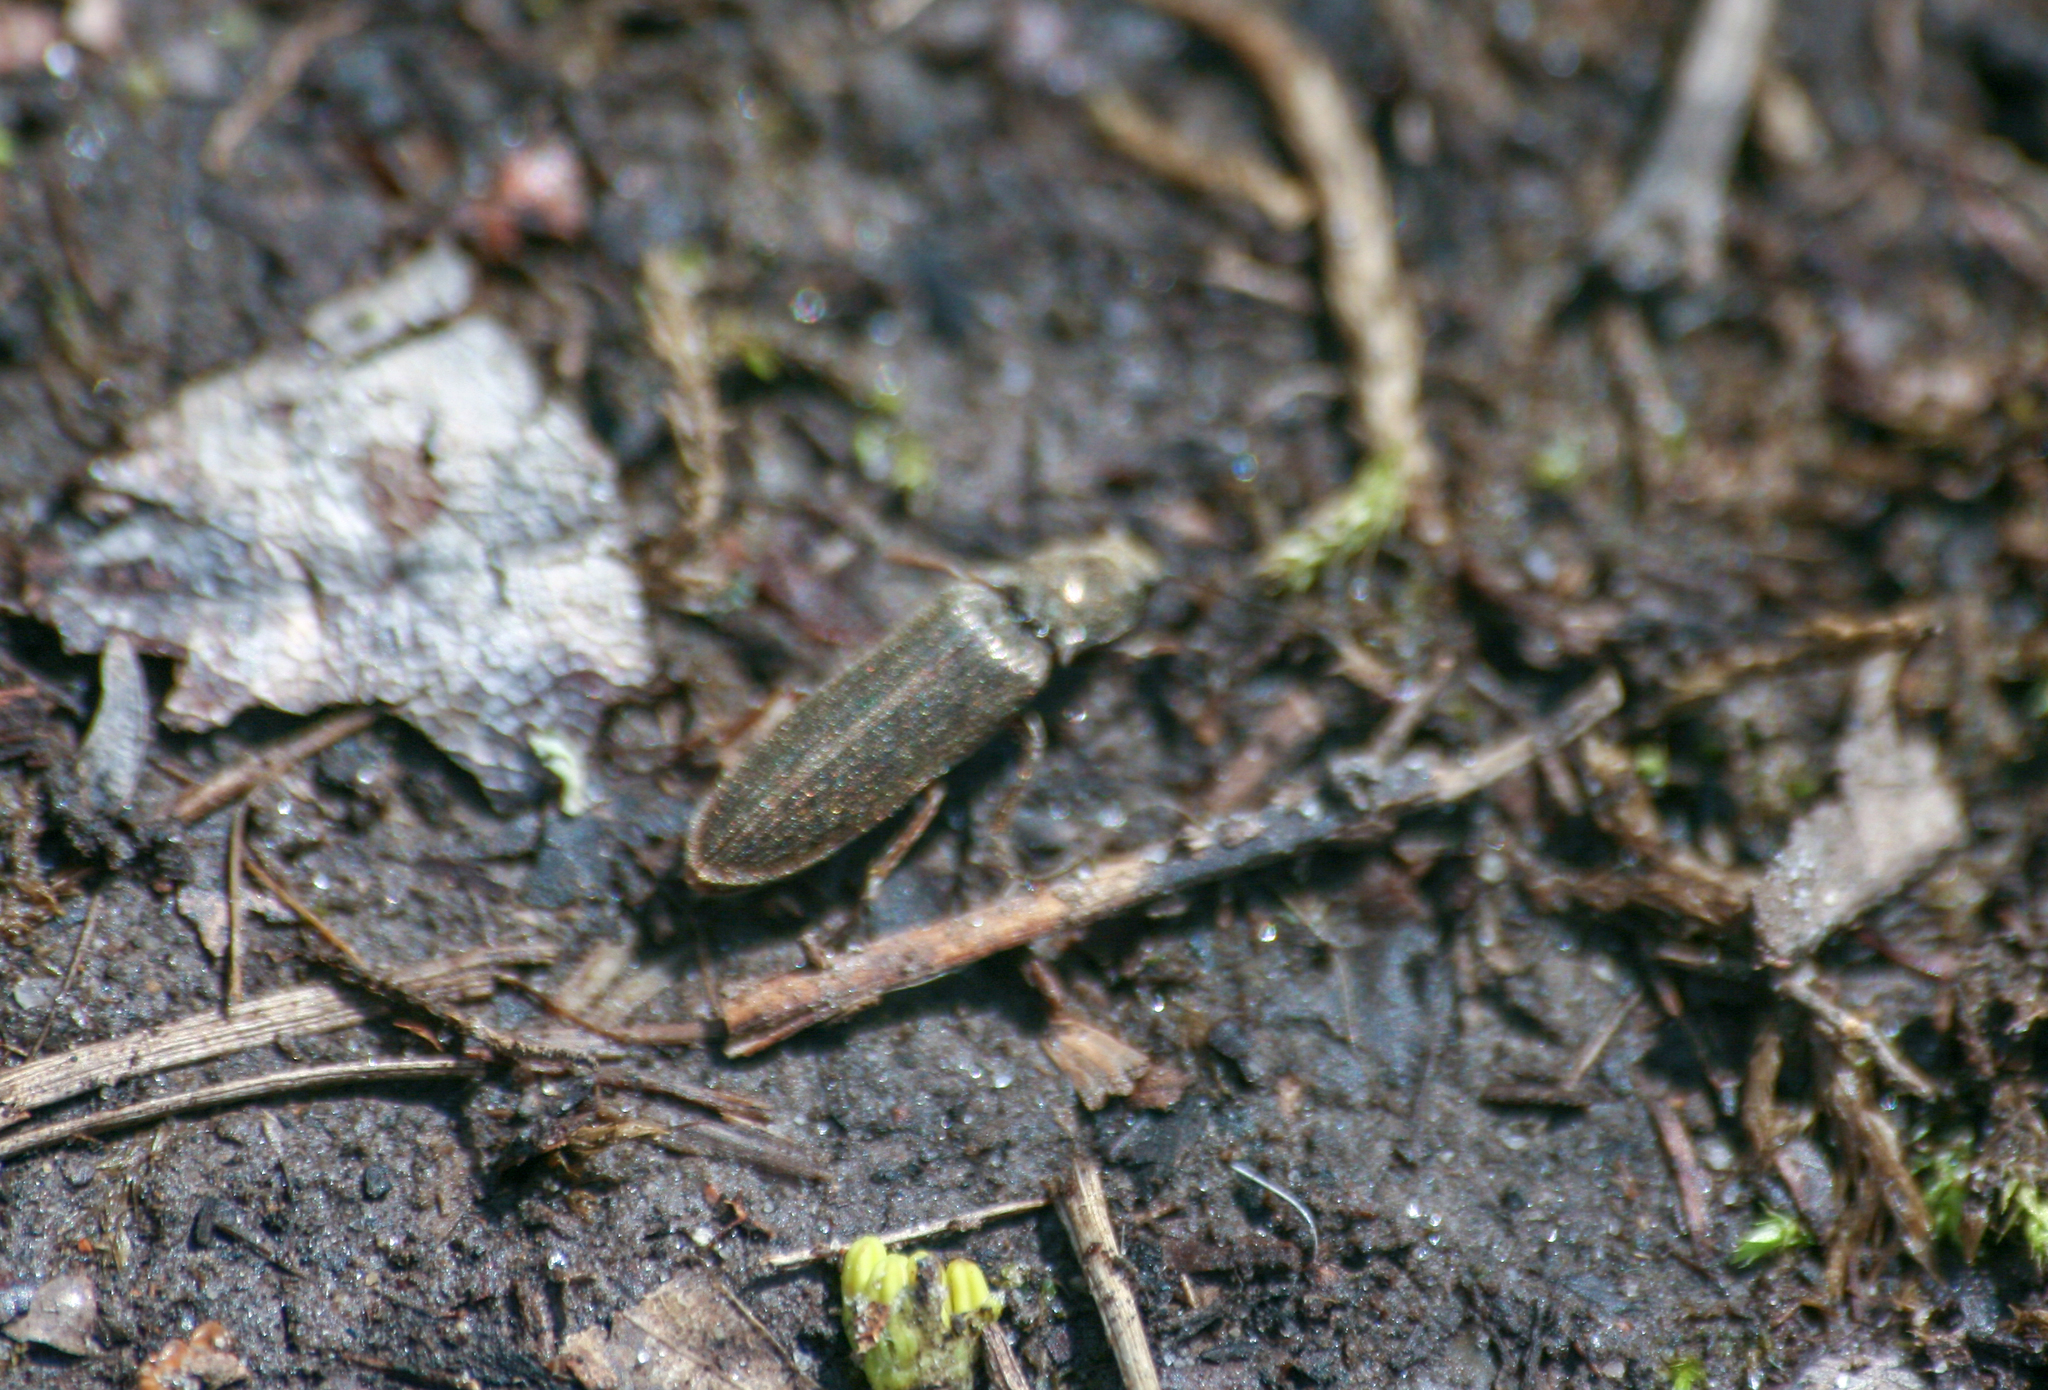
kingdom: Animalia
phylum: Arthropoda
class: Insecta
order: Coleoptera
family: Elateridae
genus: Sylvanelater
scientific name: Sylvanelater cylindriformis
